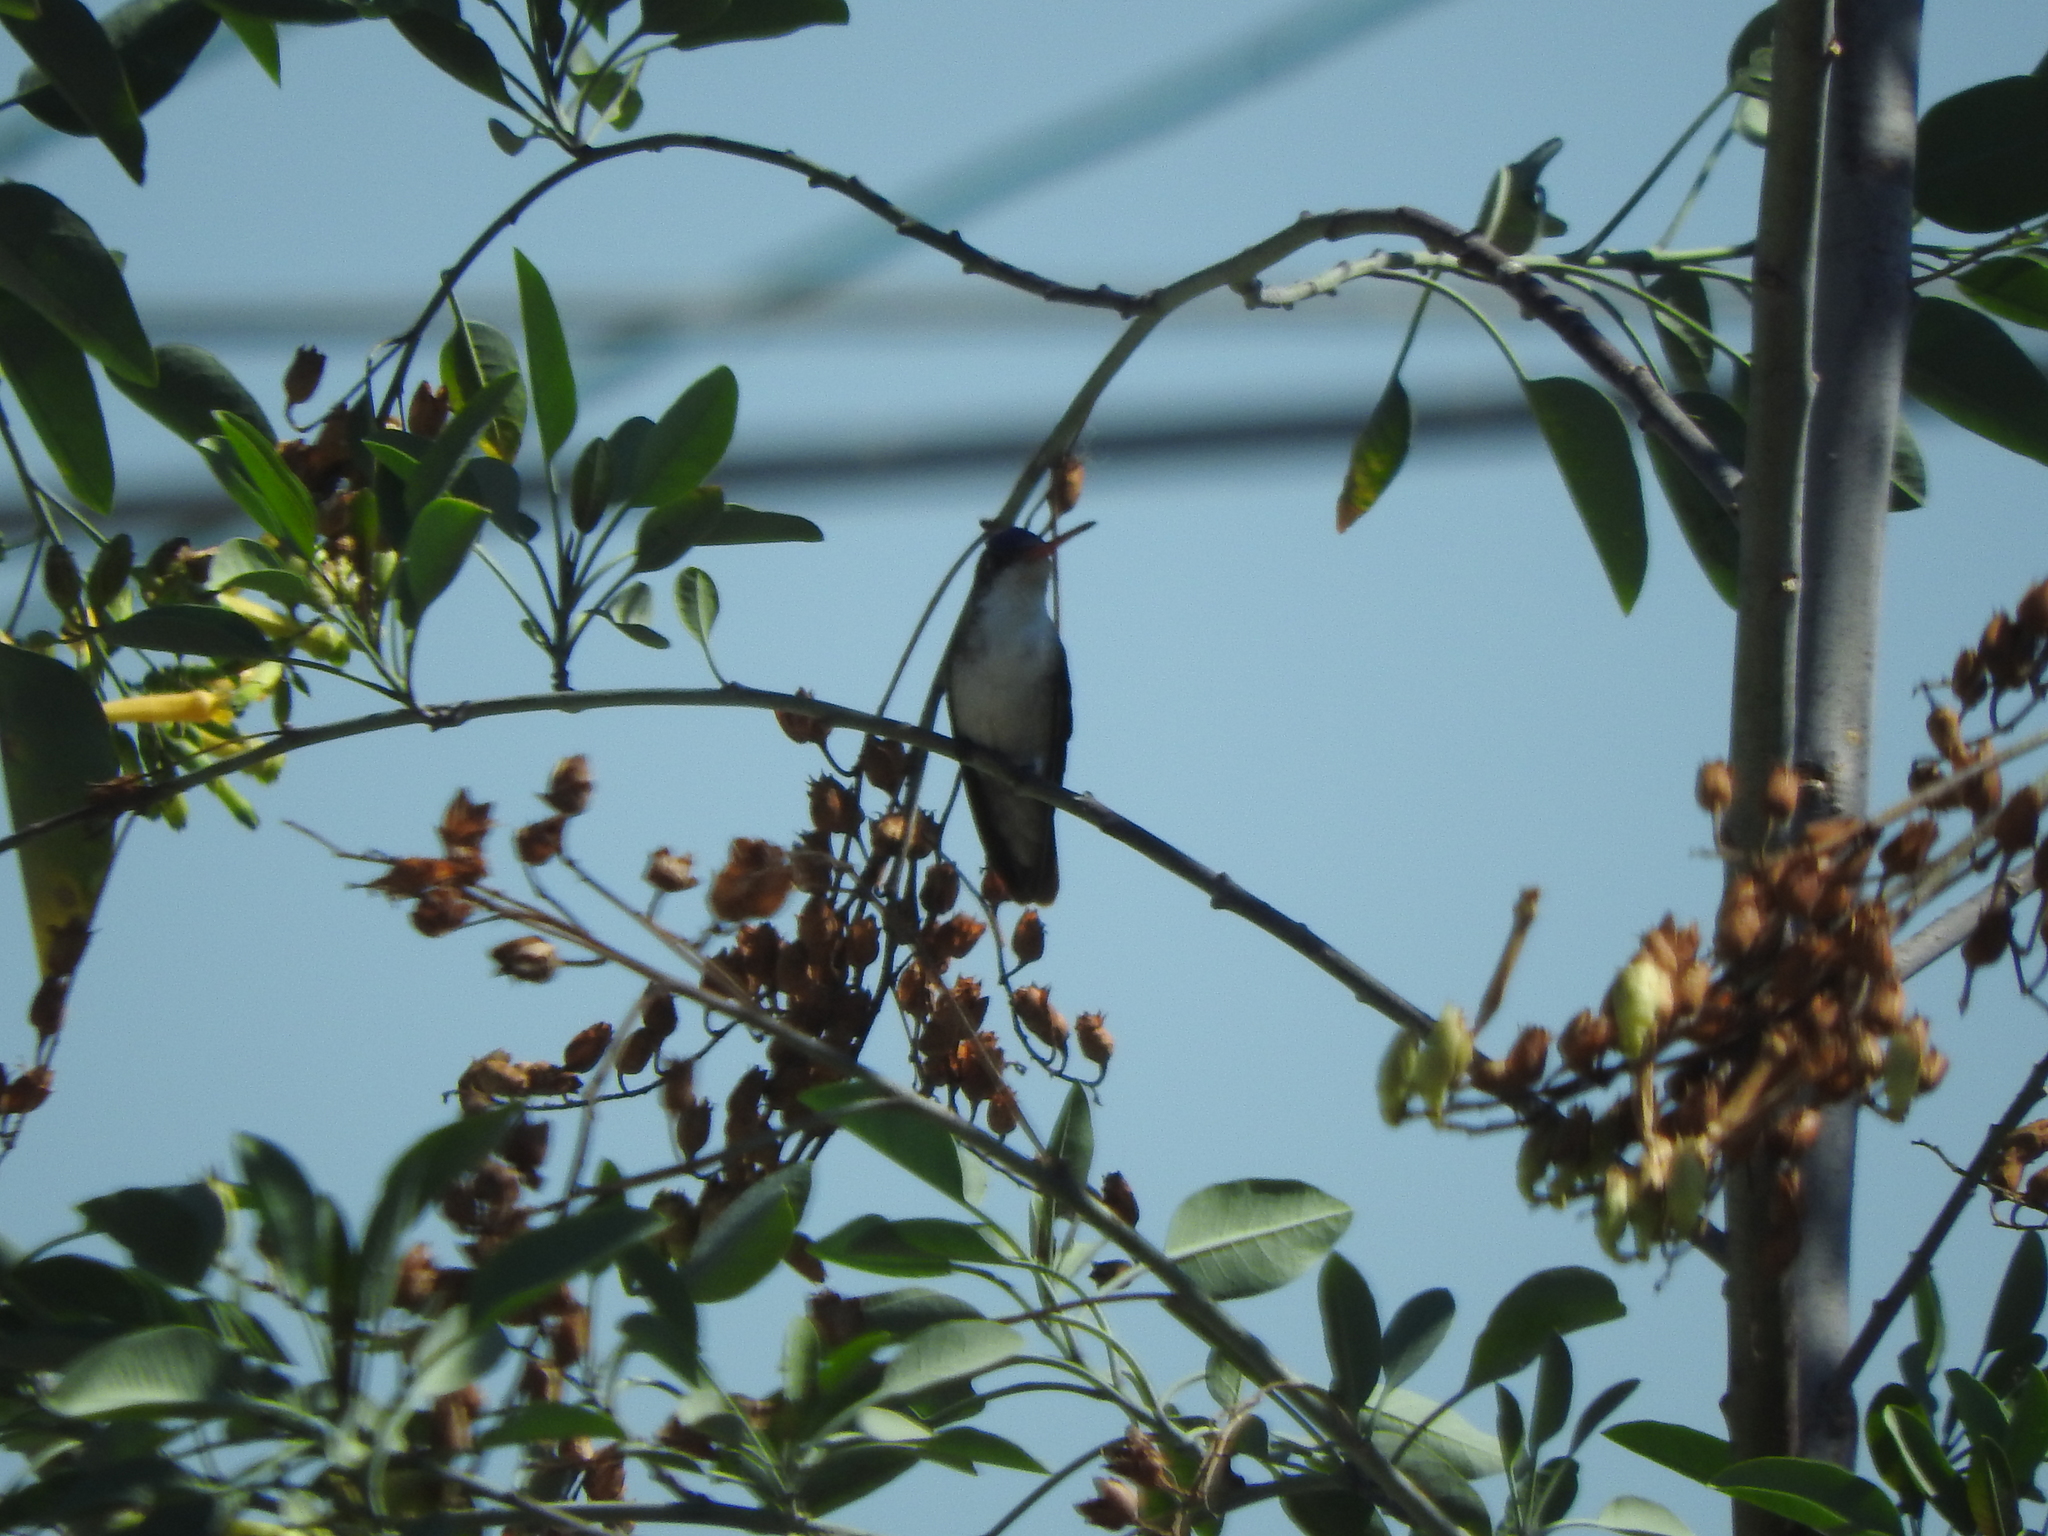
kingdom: Animalia
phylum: Chordata
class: Aves
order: Apodiformes
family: Trochilidae
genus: Leucolia
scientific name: Leucolia violiceps
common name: Violet-crowned hummingbird
